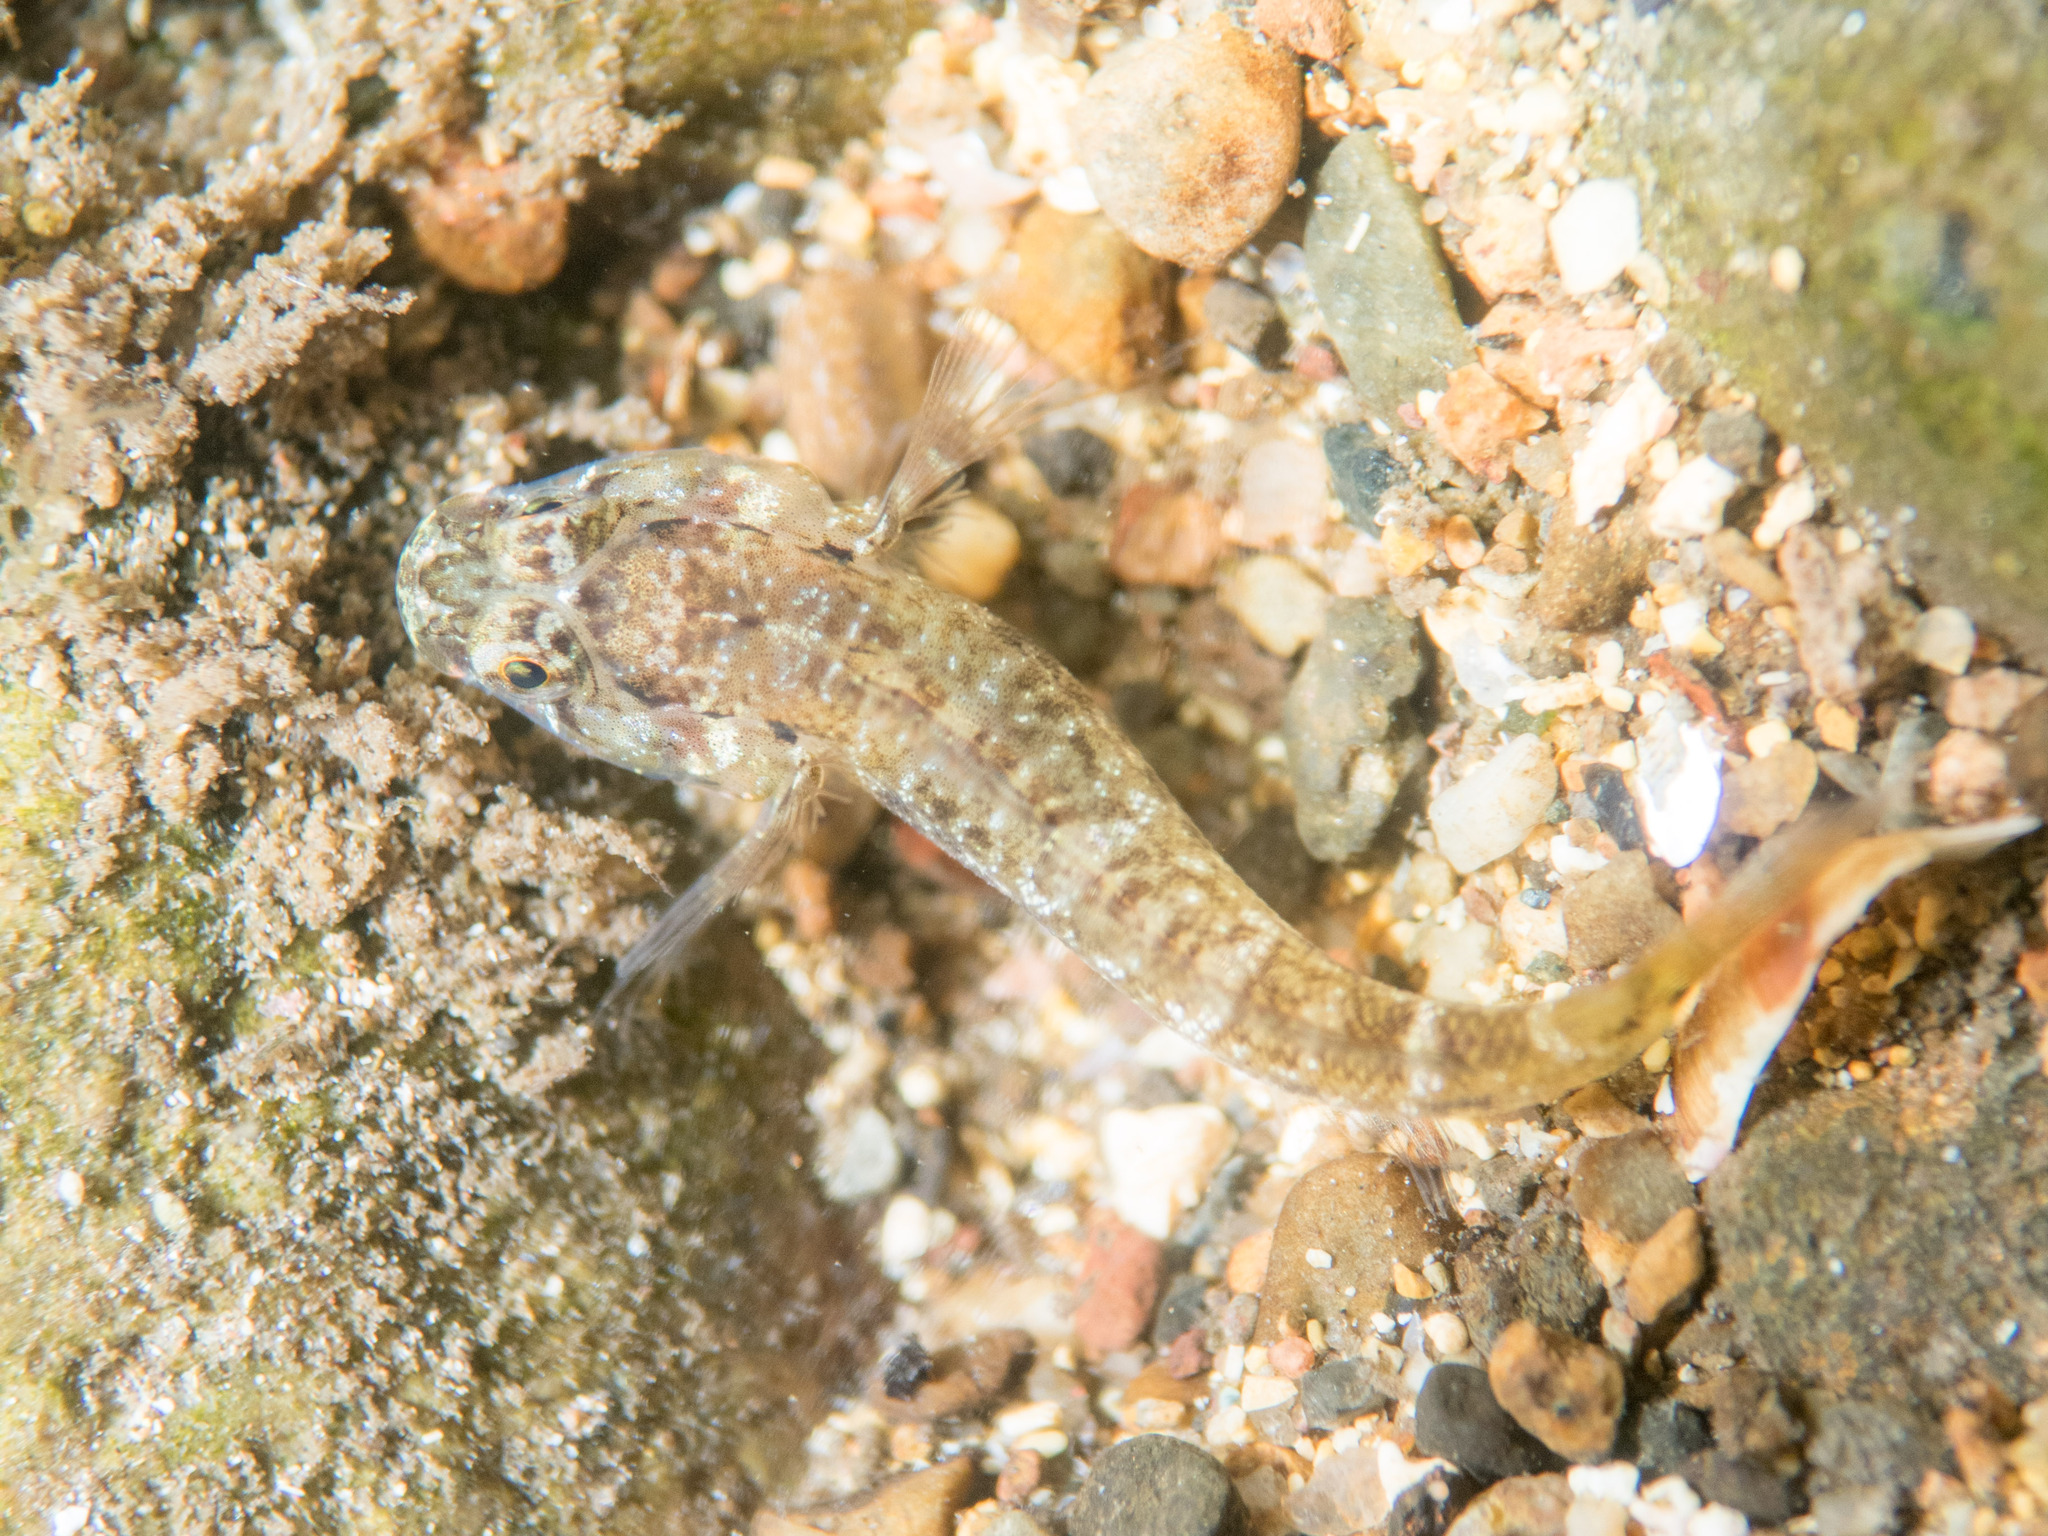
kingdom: Animalia
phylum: Chordata
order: Perciformes
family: Gobiidae
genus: Gobius
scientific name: Gobius paganellus
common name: Rock goby
